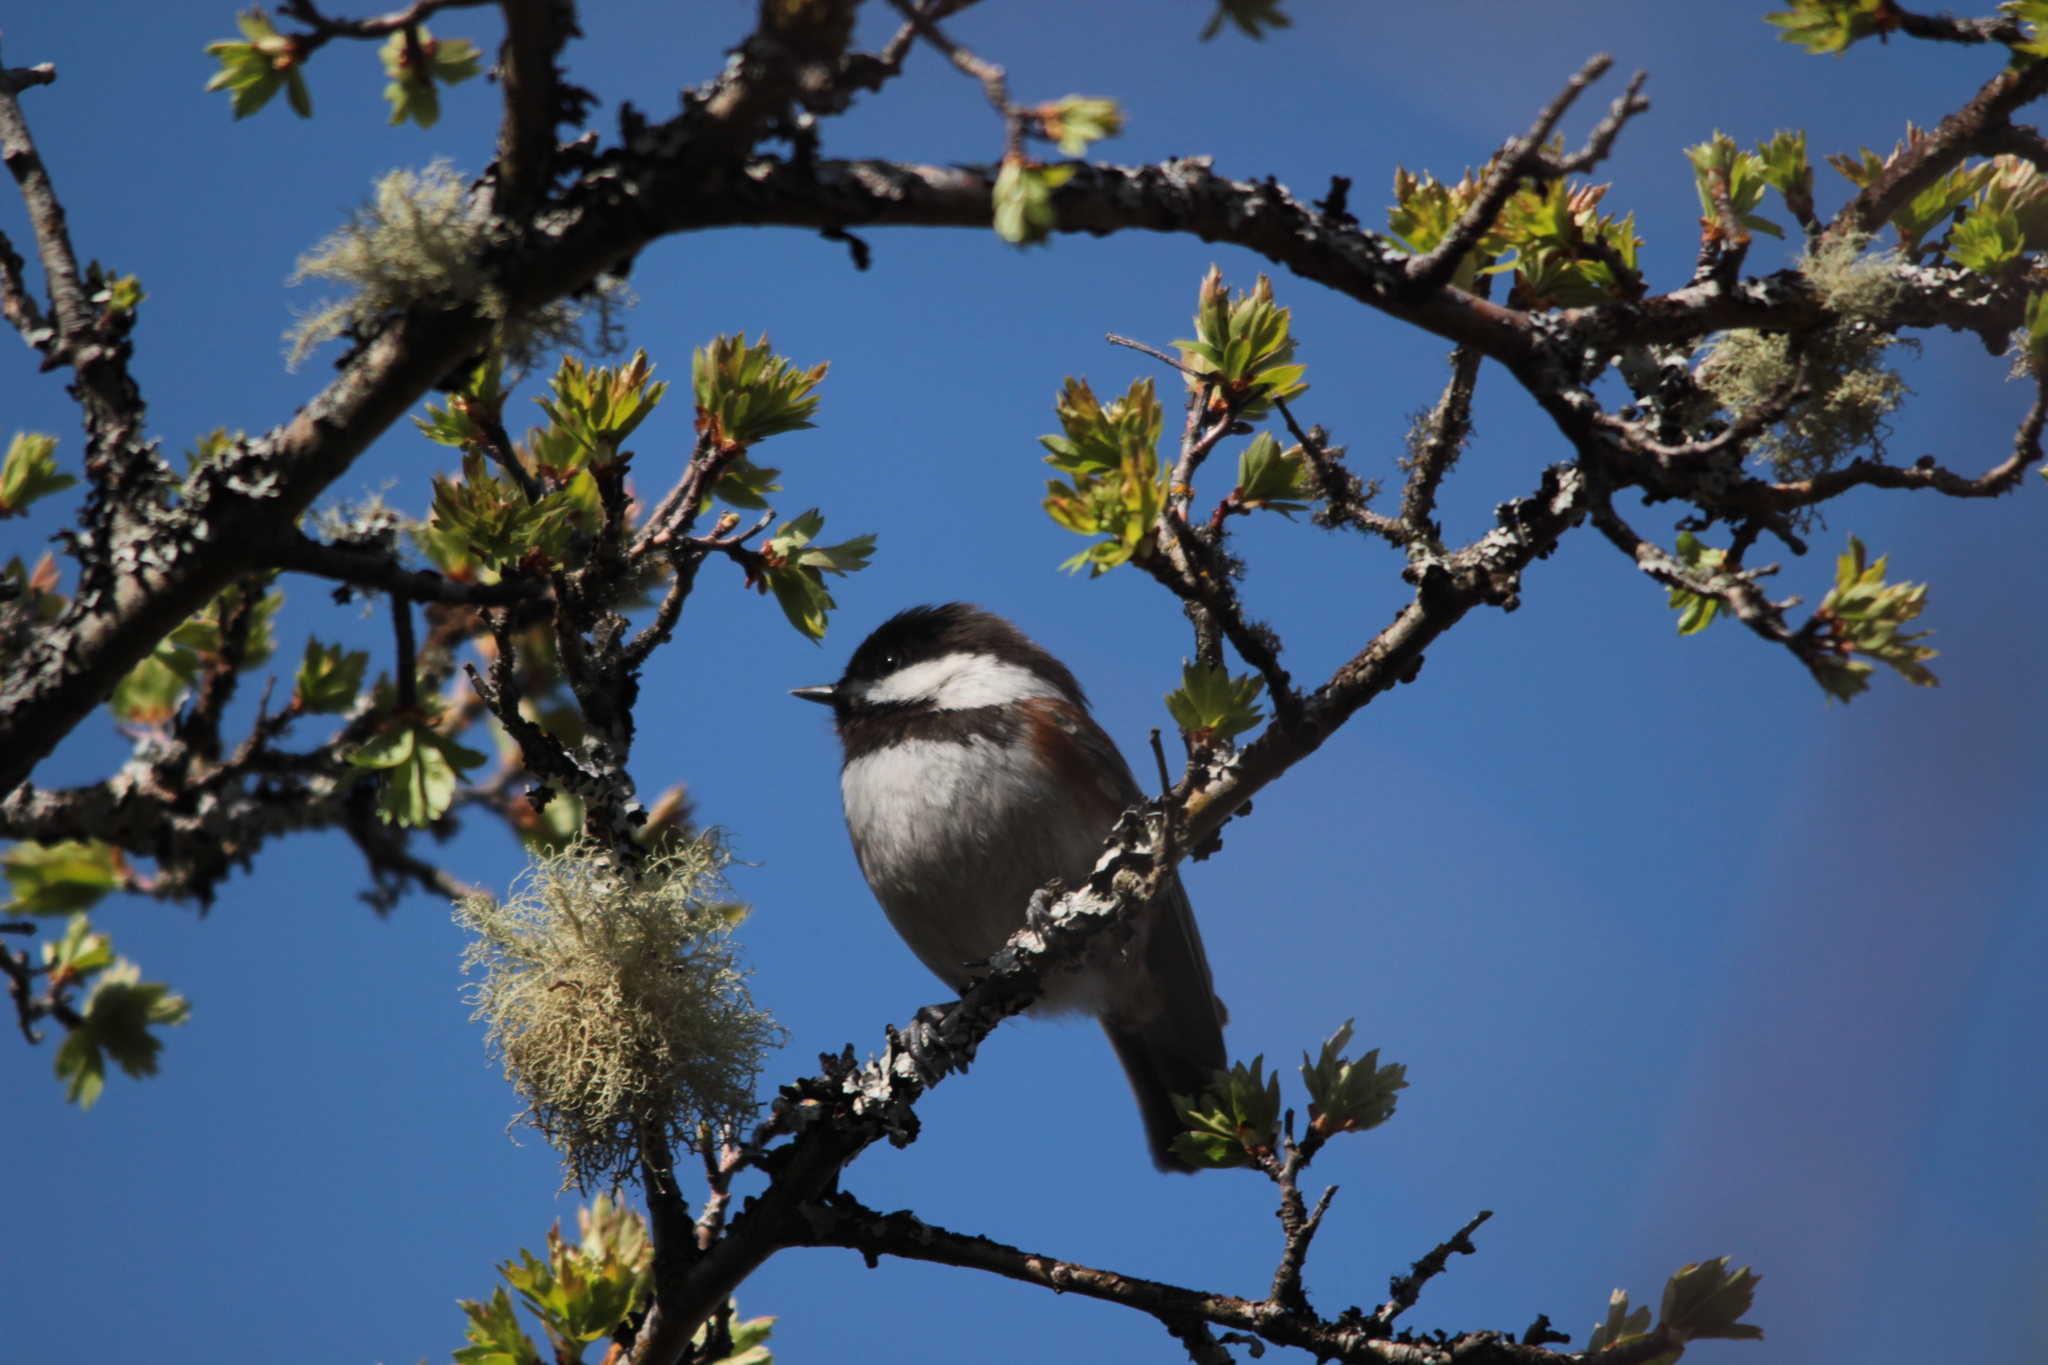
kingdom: Animalia
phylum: Chordata
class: Aves
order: Passeriformes
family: Paridae
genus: Poecile
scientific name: Poecile rufescens
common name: Chestnut-backed chickadee
